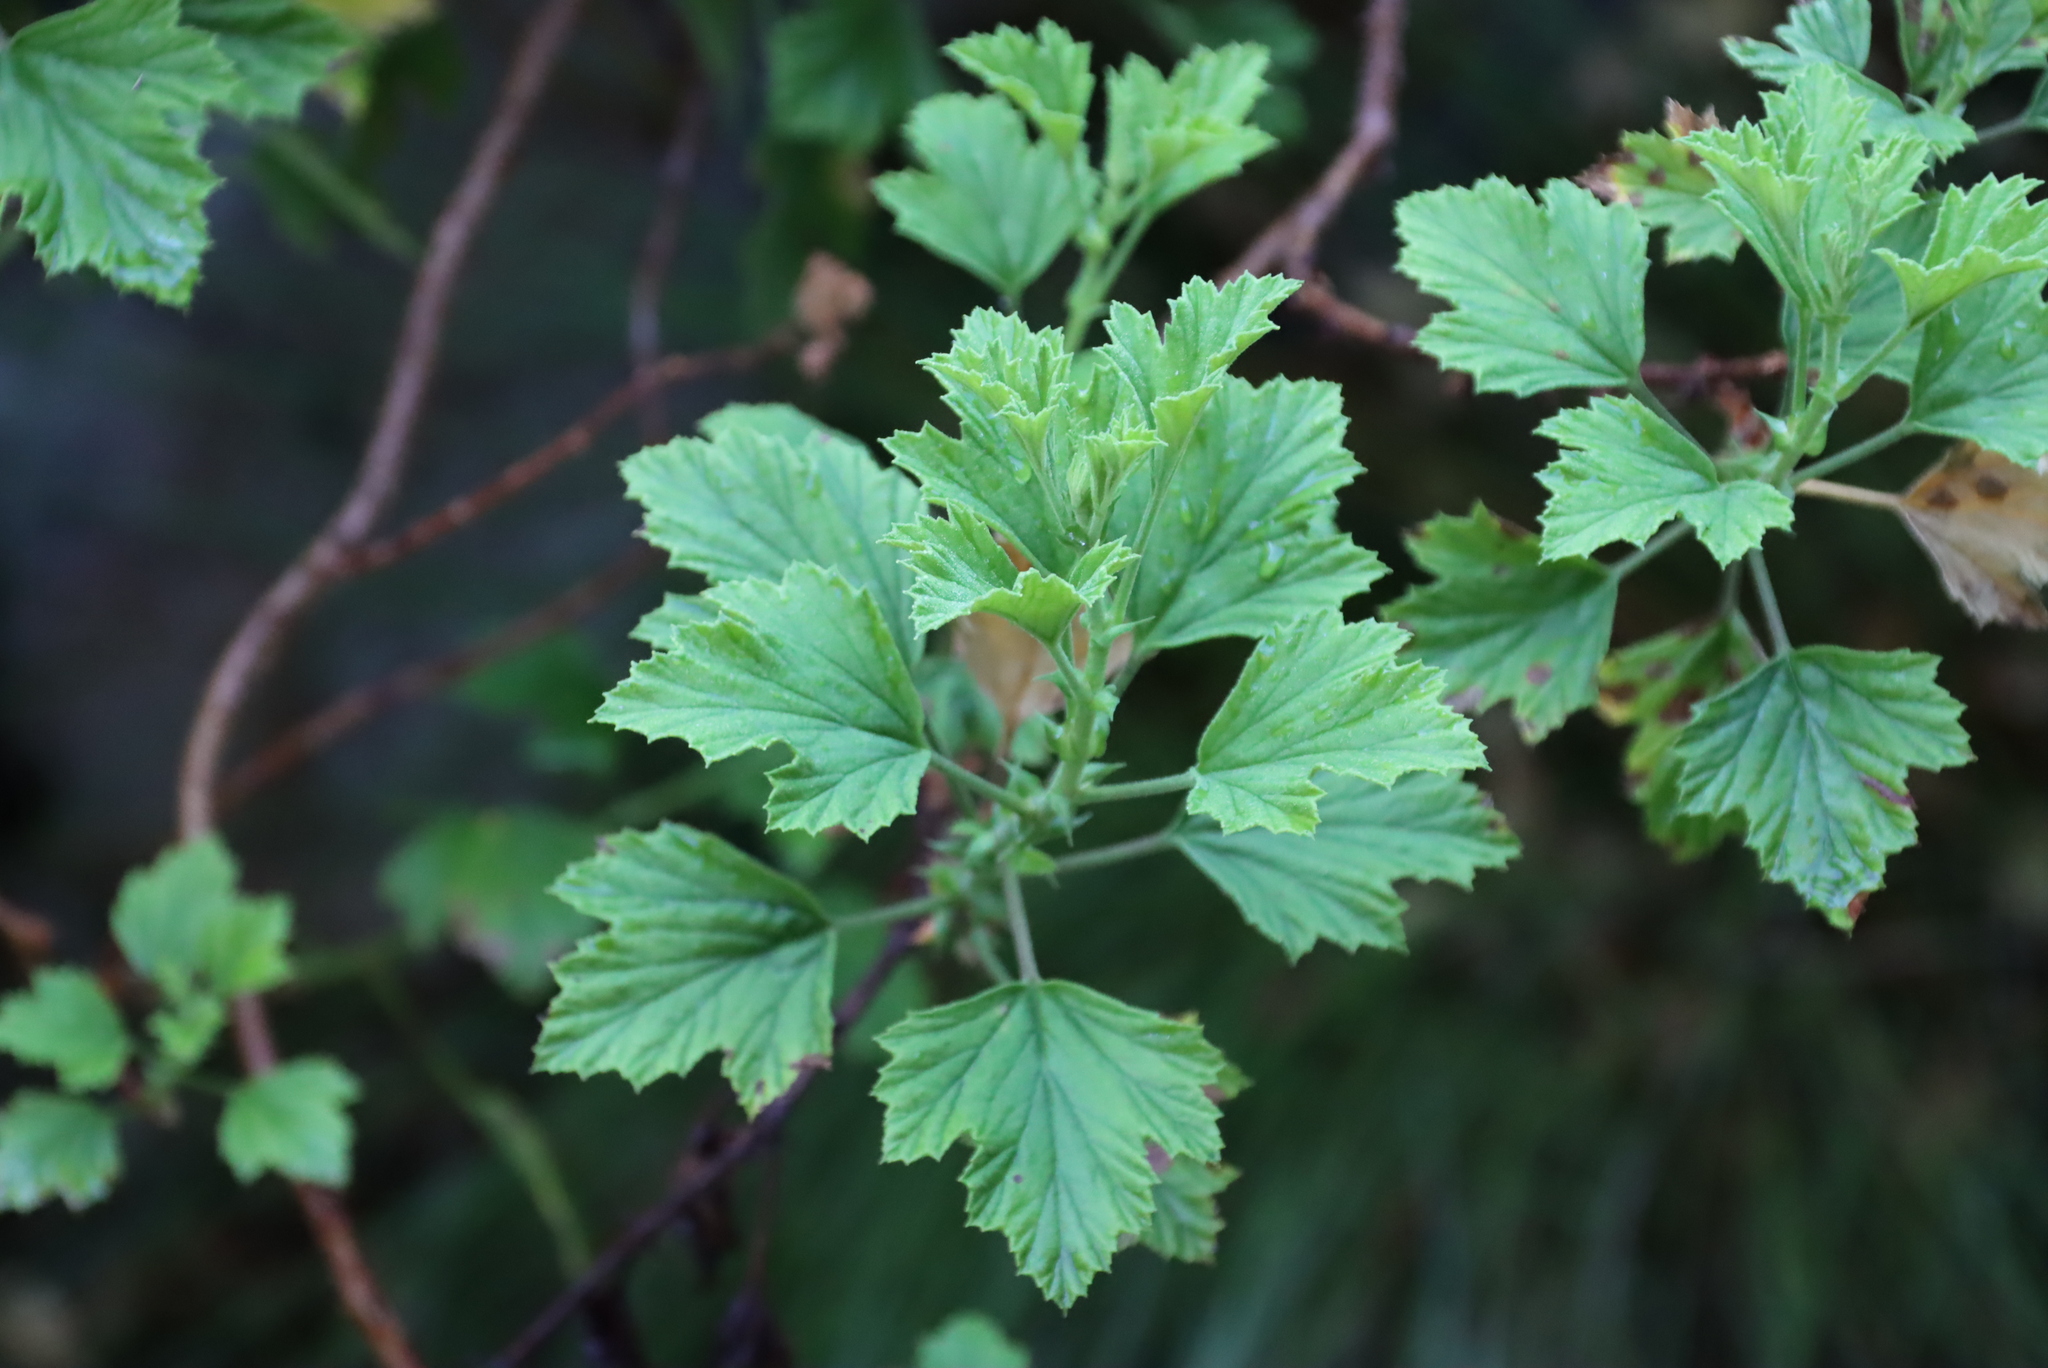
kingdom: Plantae
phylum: Tracheophyta
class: Magnoliopsida
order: Geraniales
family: Geraniaceae
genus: Pelargonium
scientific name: Pelargonium ribifolium
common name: Currant-leaf pelargonium
